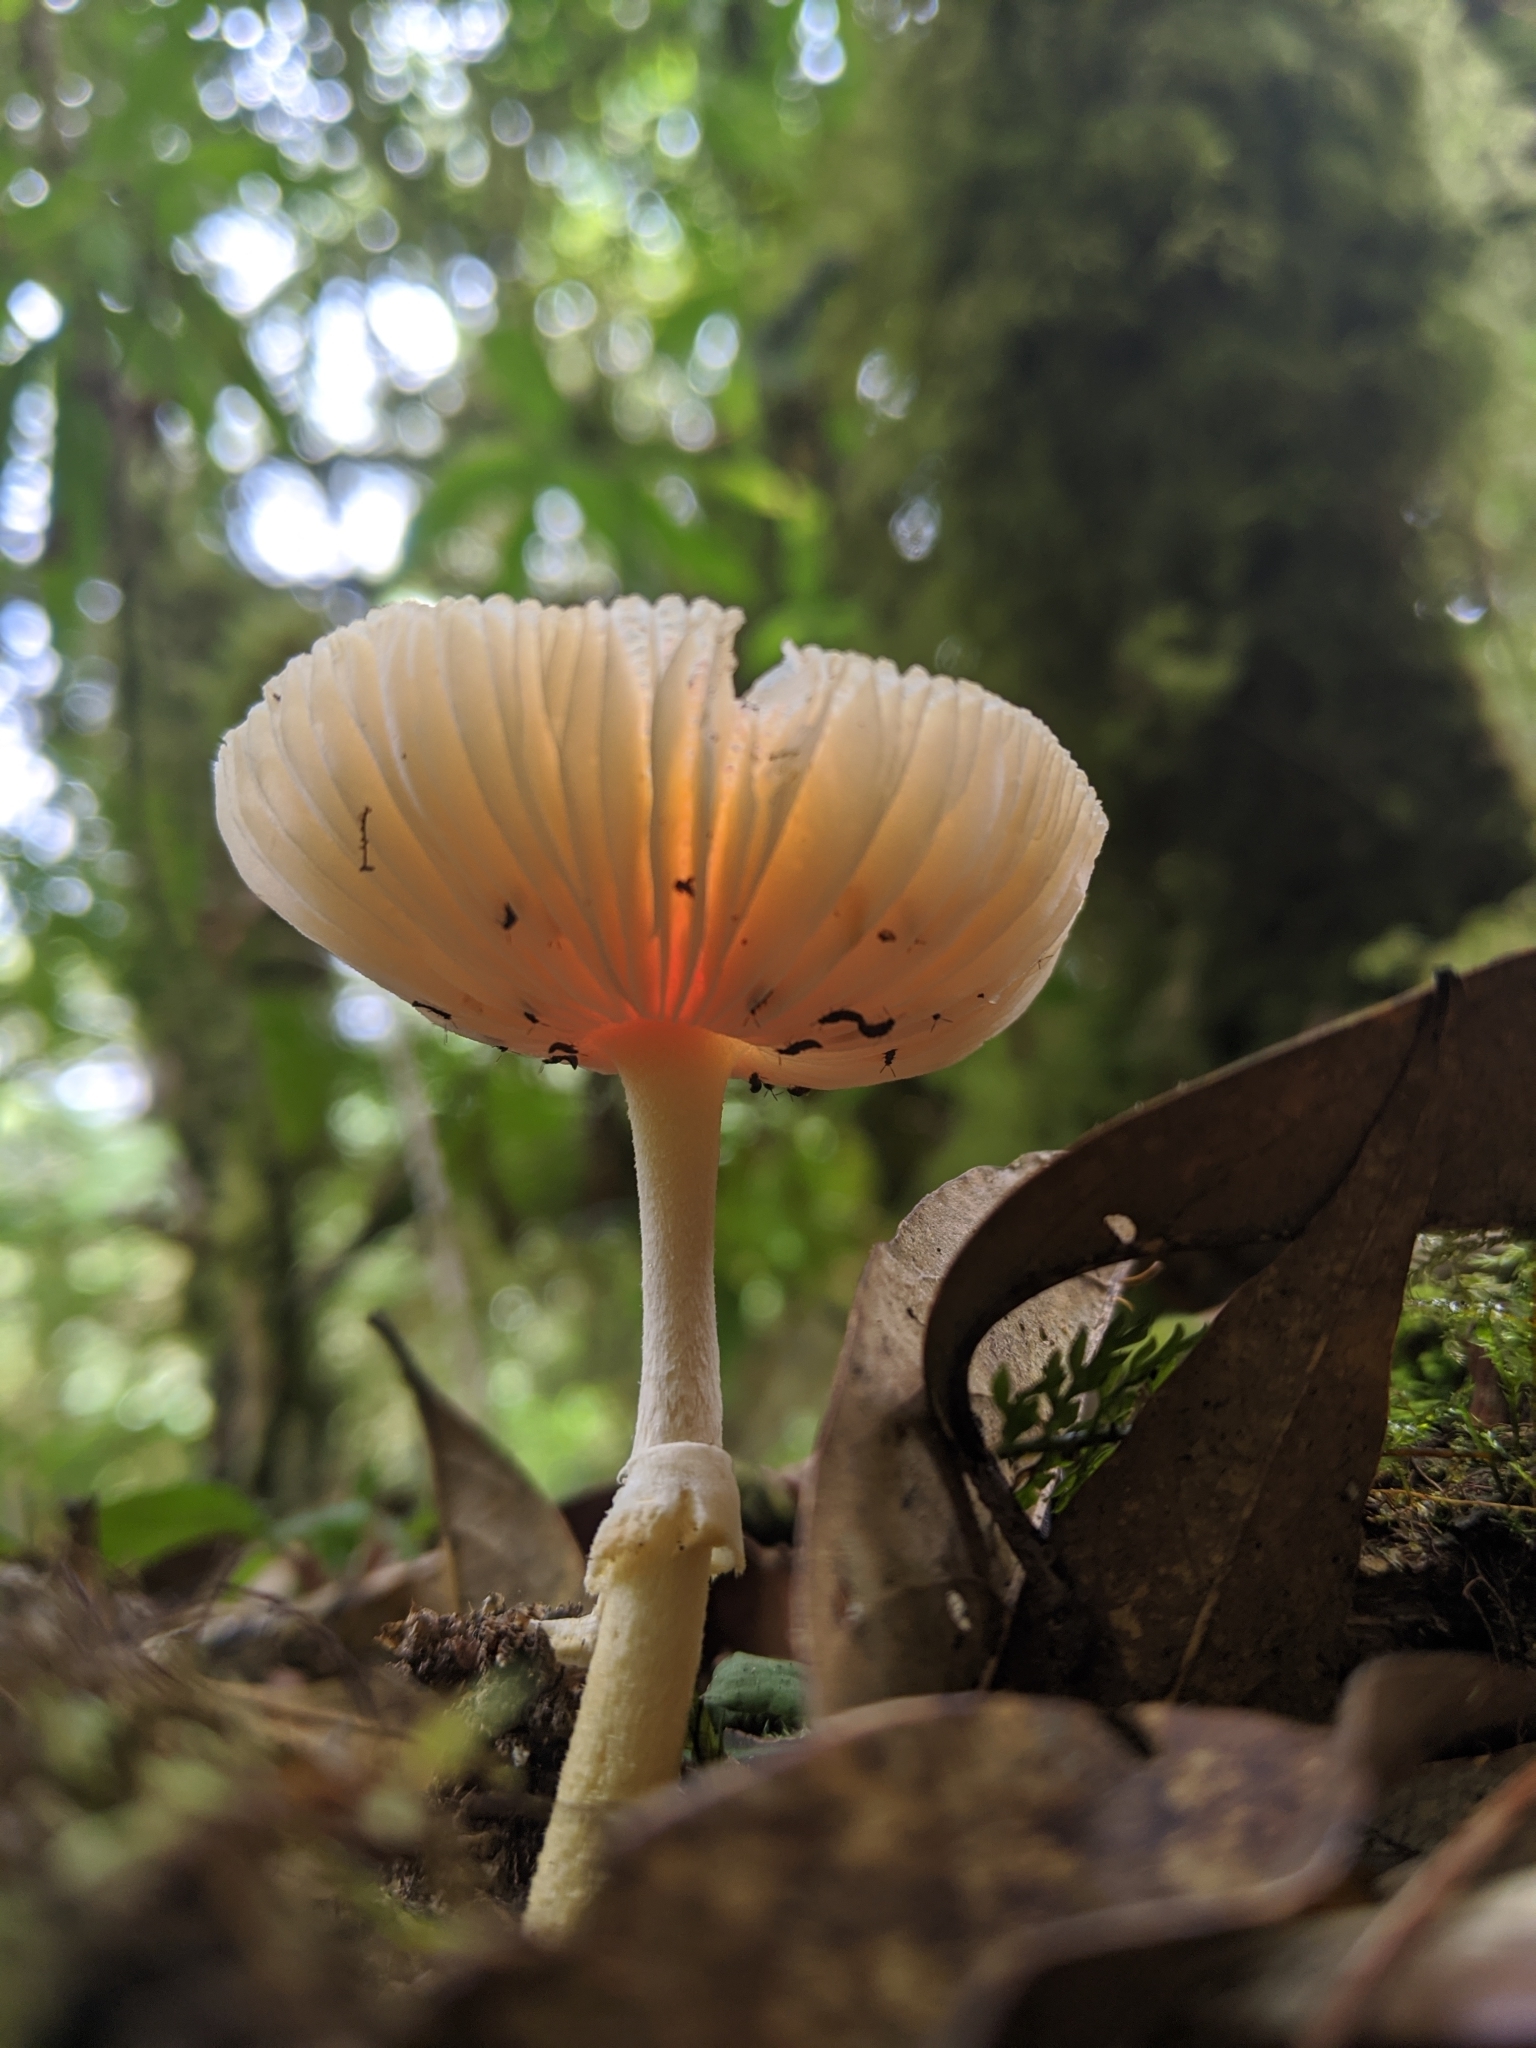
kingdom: Fungi
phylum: Basidiomycota
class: Agaricomycetes
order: Agaricales
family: Amanitaceae
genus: Amanita
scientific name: Amanita rubrovolvata
